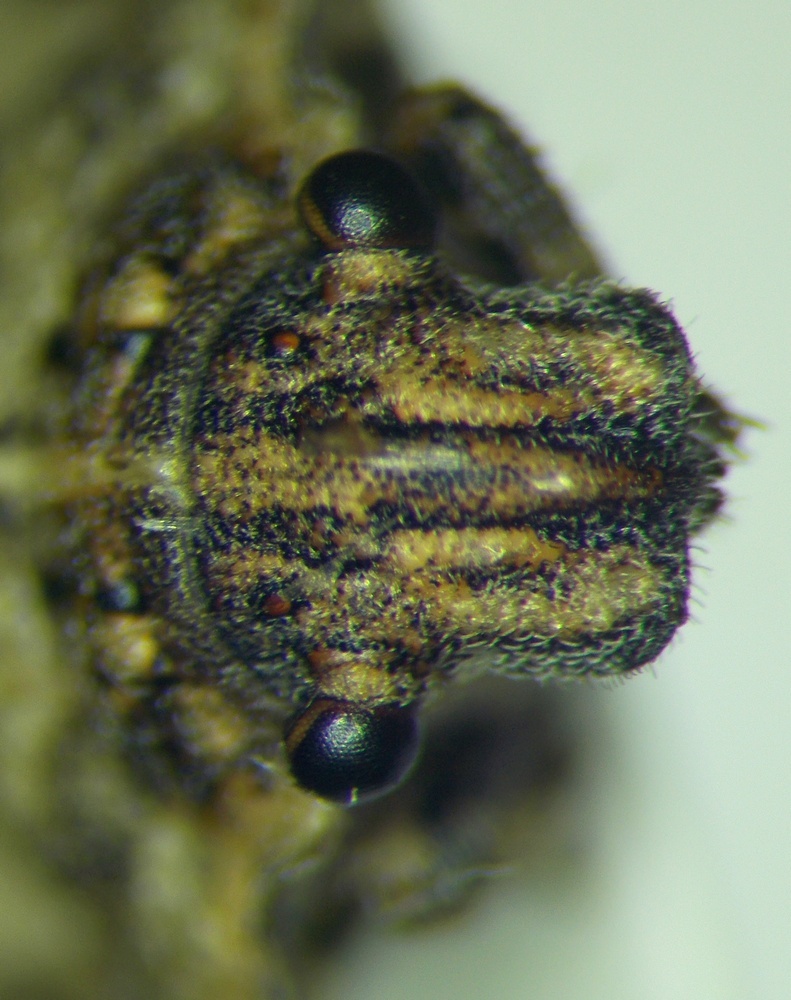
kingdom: Animalia
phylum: Arthropoda
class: Insecta
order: Hemiptera
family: Scutelleridae
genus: Phimodera
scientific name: Phimodera humeralis
